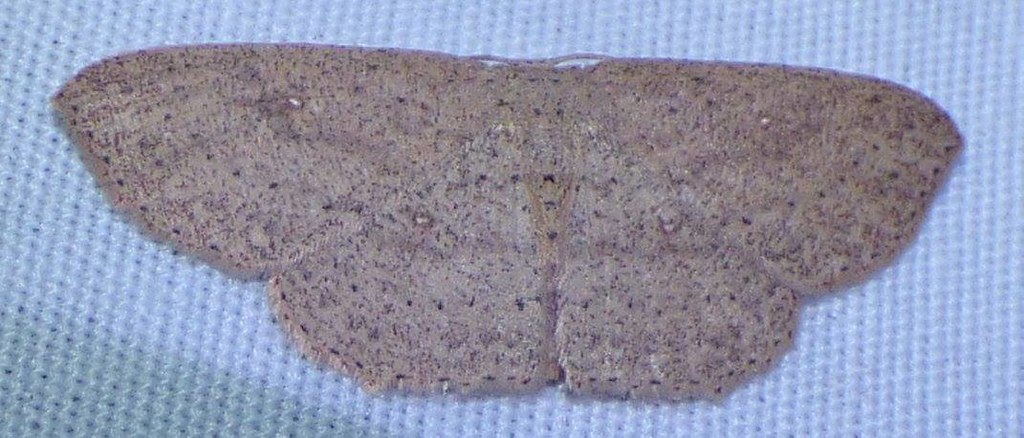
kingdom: Animalia
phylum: Arthropoda
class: Insecta
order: Lepidoptera
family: Geometridae
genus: Cyclophora
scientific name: Cyclophora myrtaria
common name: Waxmyrtle wave moth
